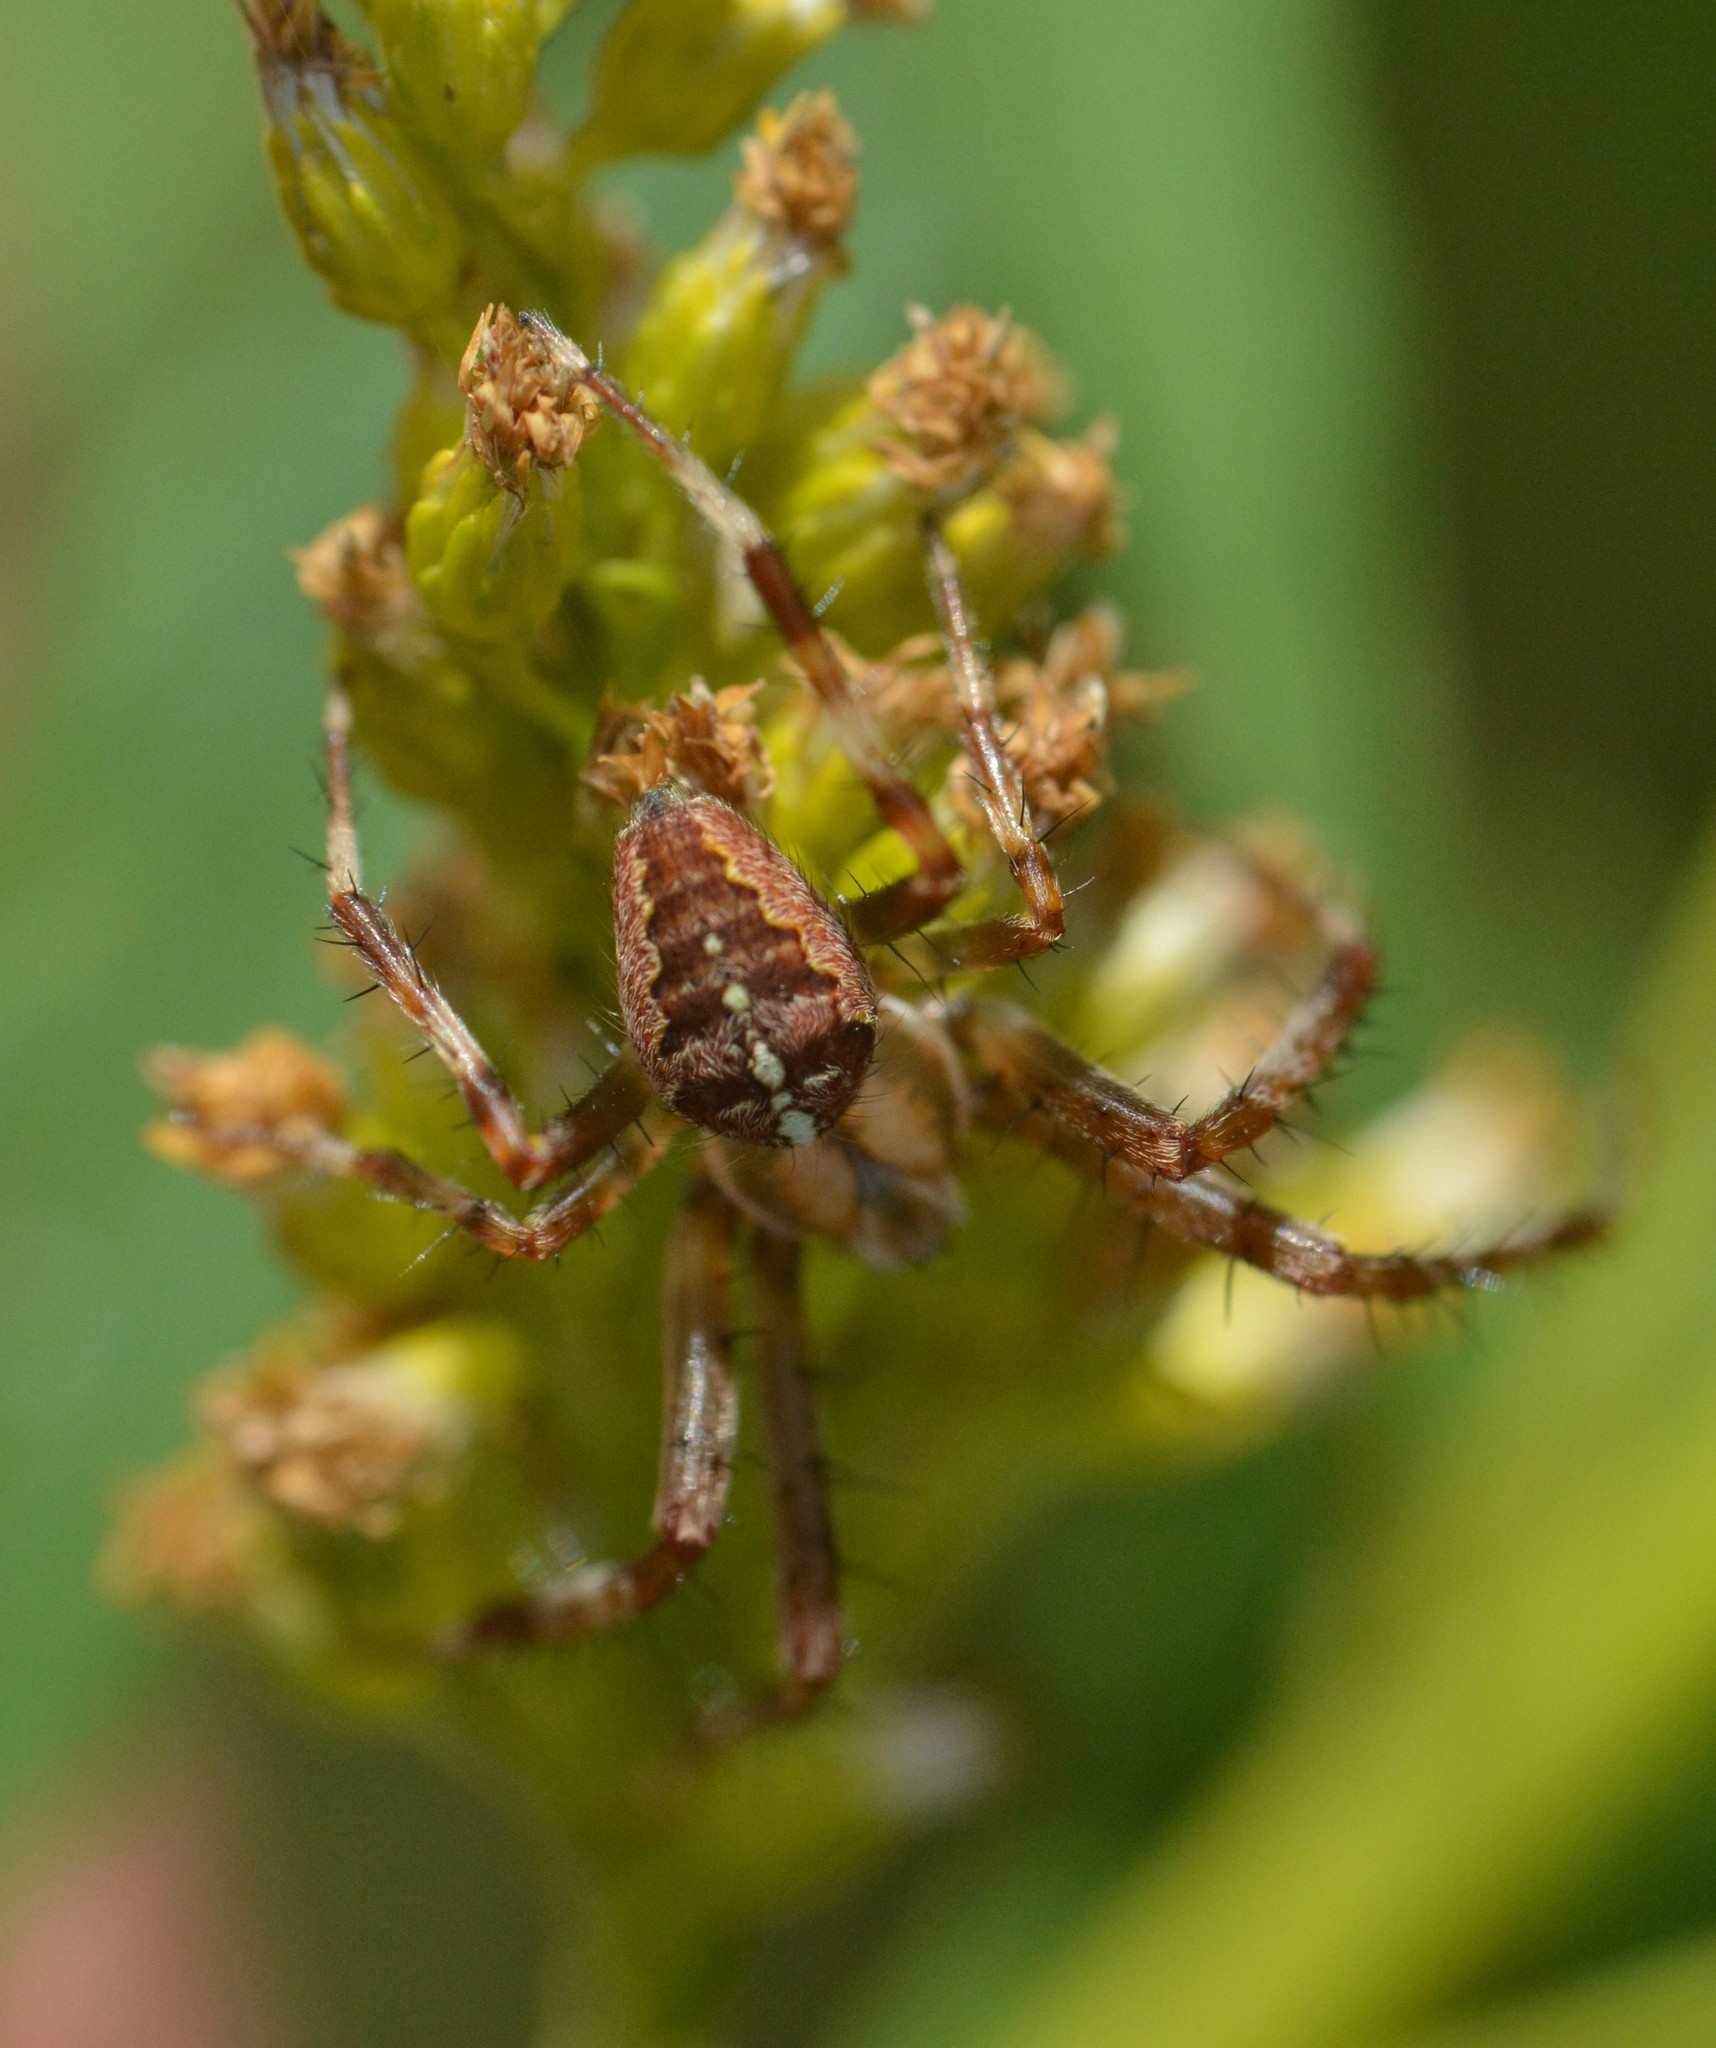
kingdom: Animalia
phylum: Arthropoda
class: Arachnida
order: Araneae
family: Araneidae
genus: Araneus
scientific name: Araneus diadematus
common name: Cross orbweaver
